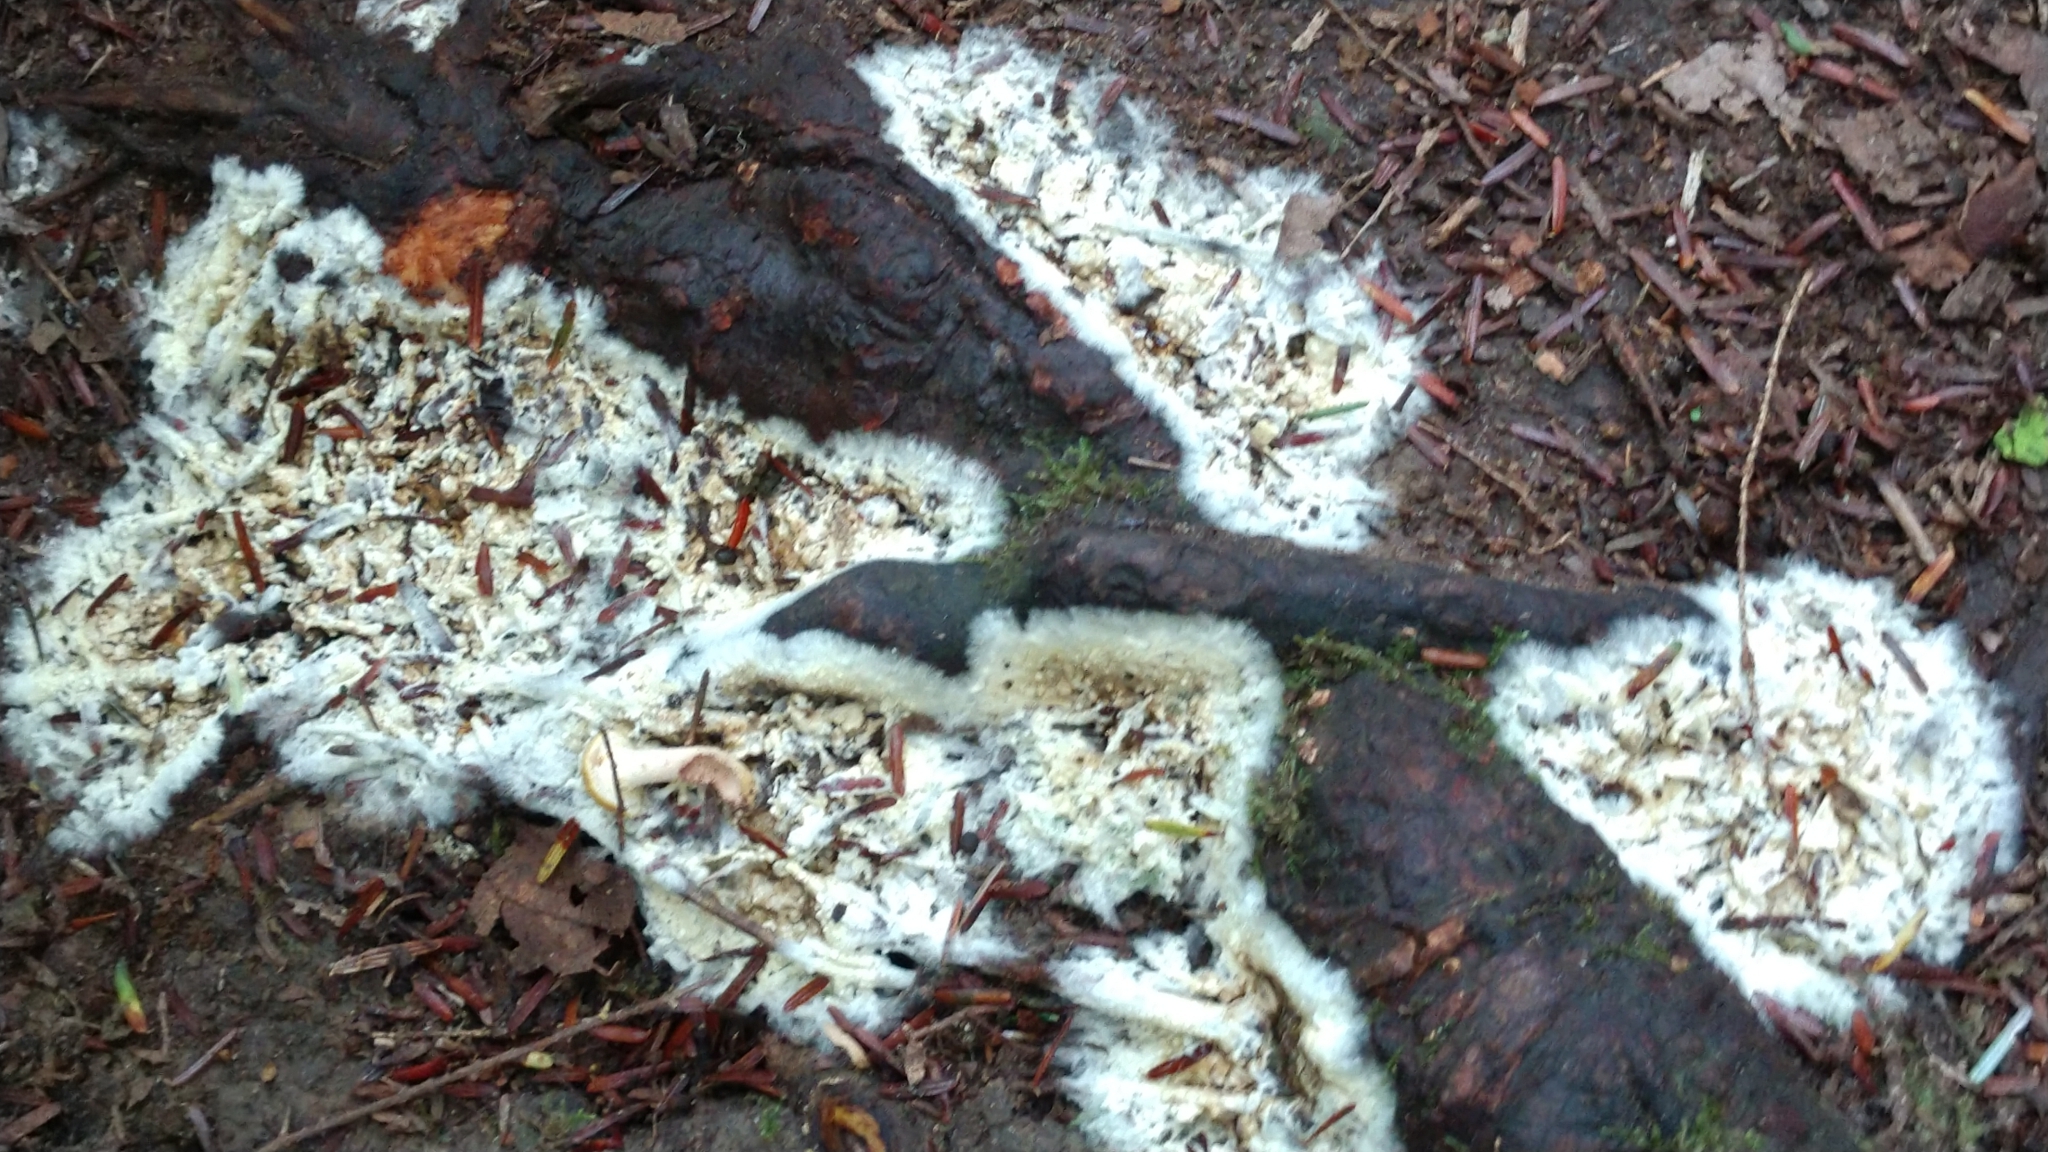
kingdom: Fungi
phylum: Basidiomycota
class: Agaricomycetes
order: Sebacinales
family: Sebacinaceae
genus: Sebacina
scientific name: Sebacina incrustans
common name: Enveloping crust
